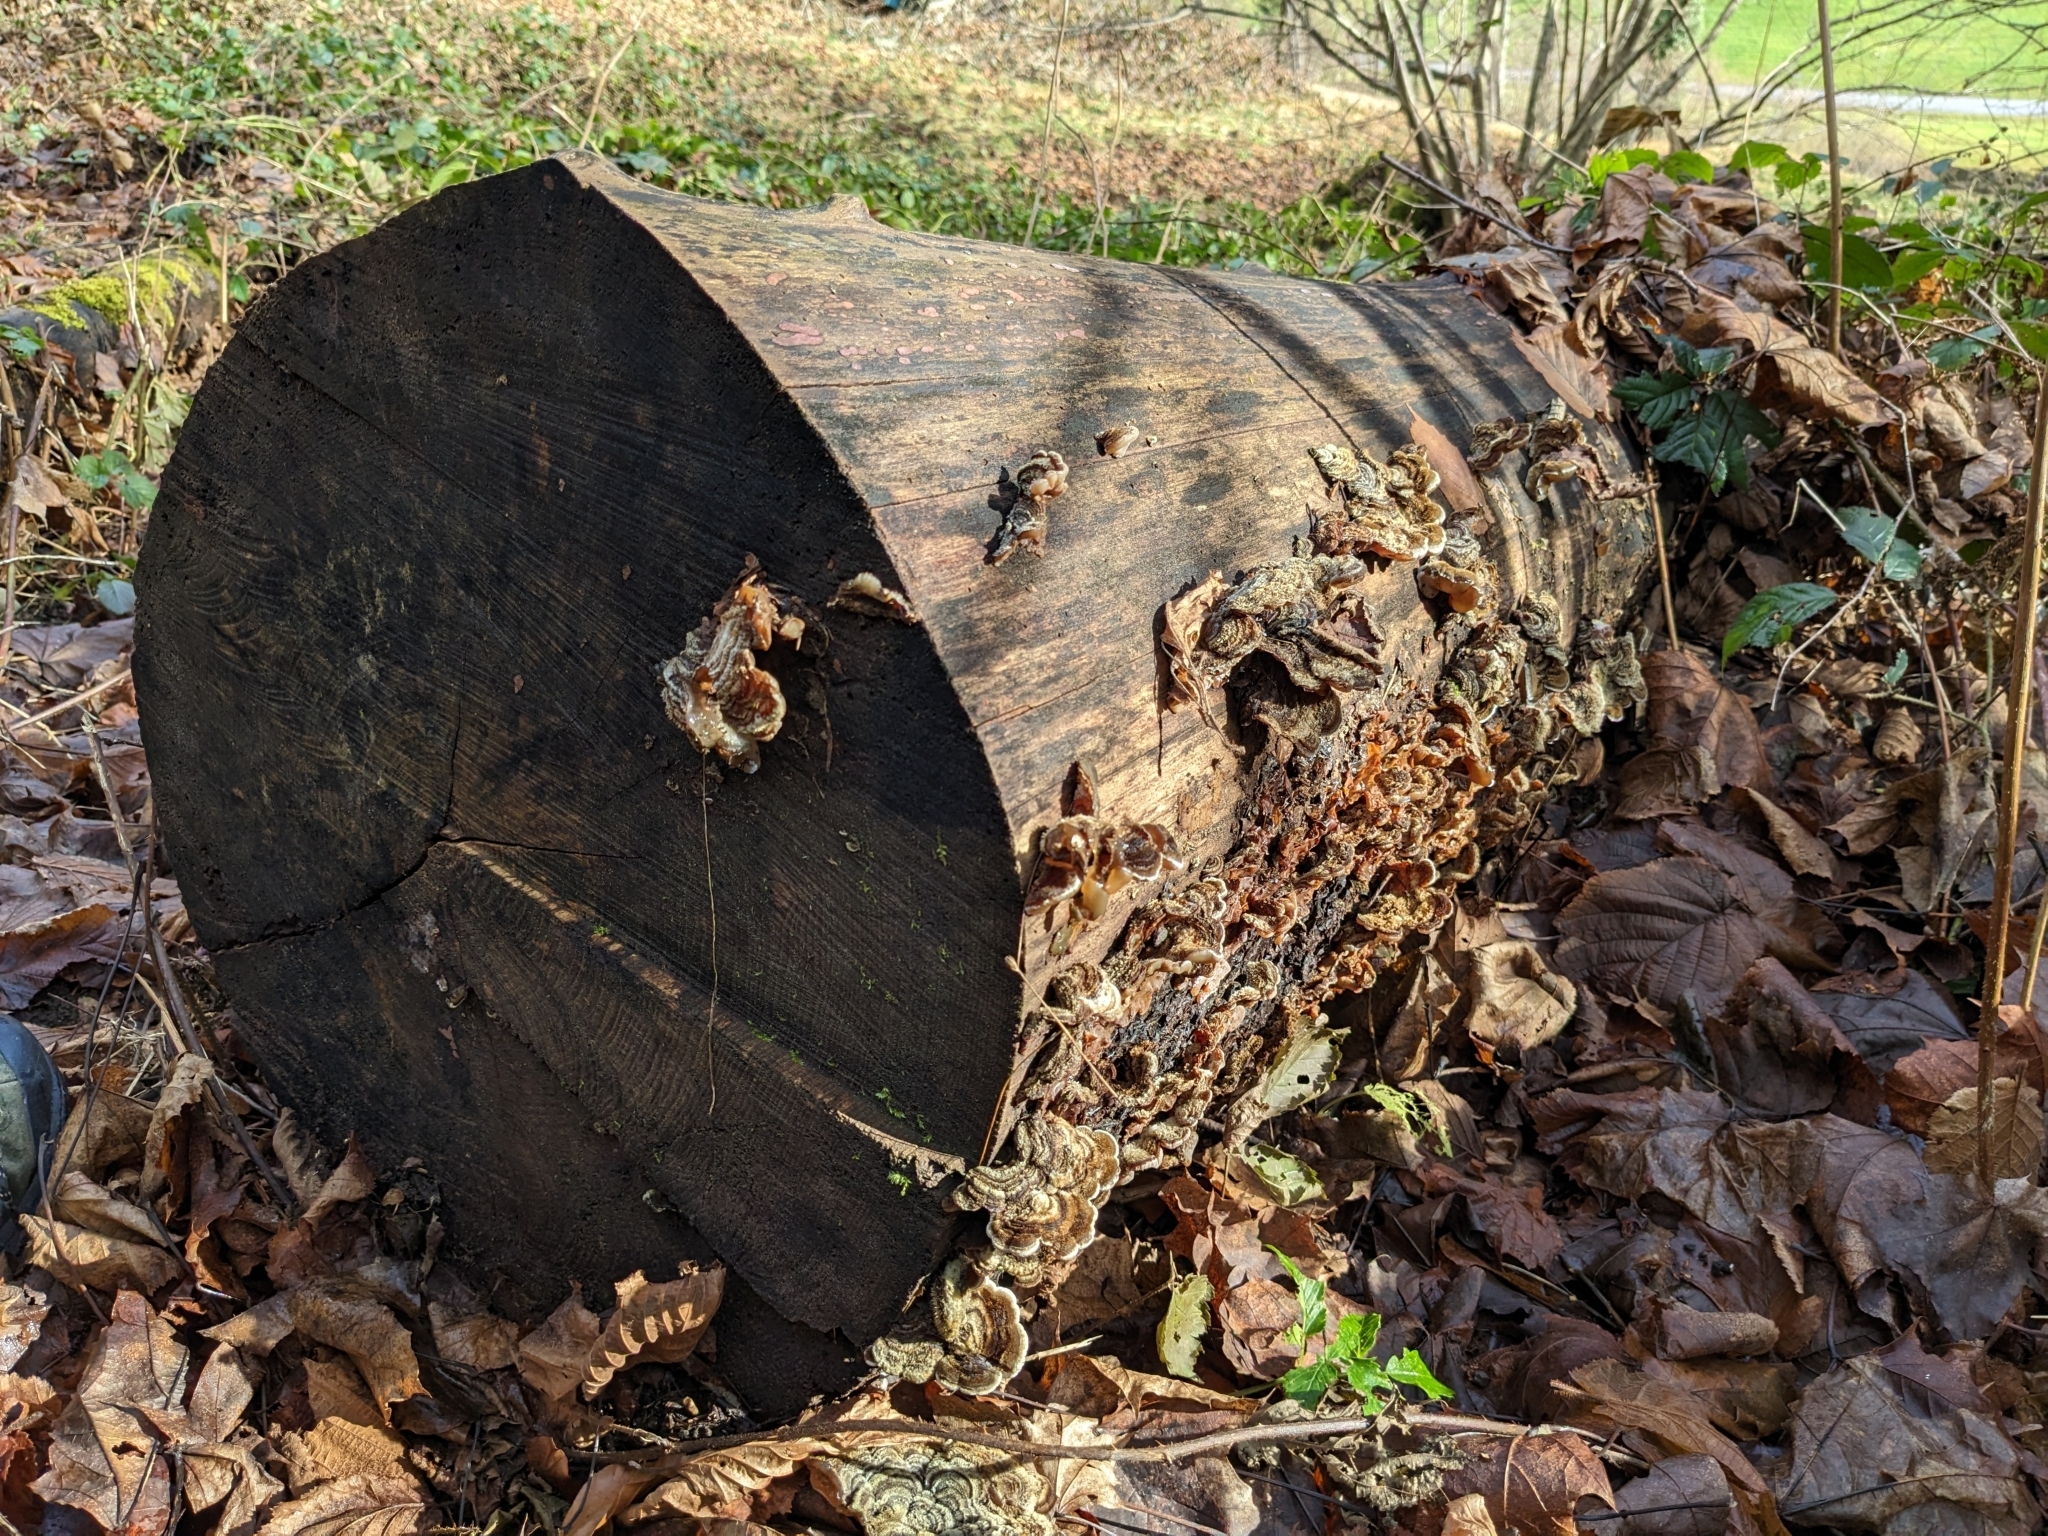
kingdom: Fungi
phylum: Basidiomycota
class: Agaricomycetes
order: Auriculariales
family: Auriculariaceae
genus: Auricularia
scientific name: Auricularia mesenterica
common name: Tripe fungus
